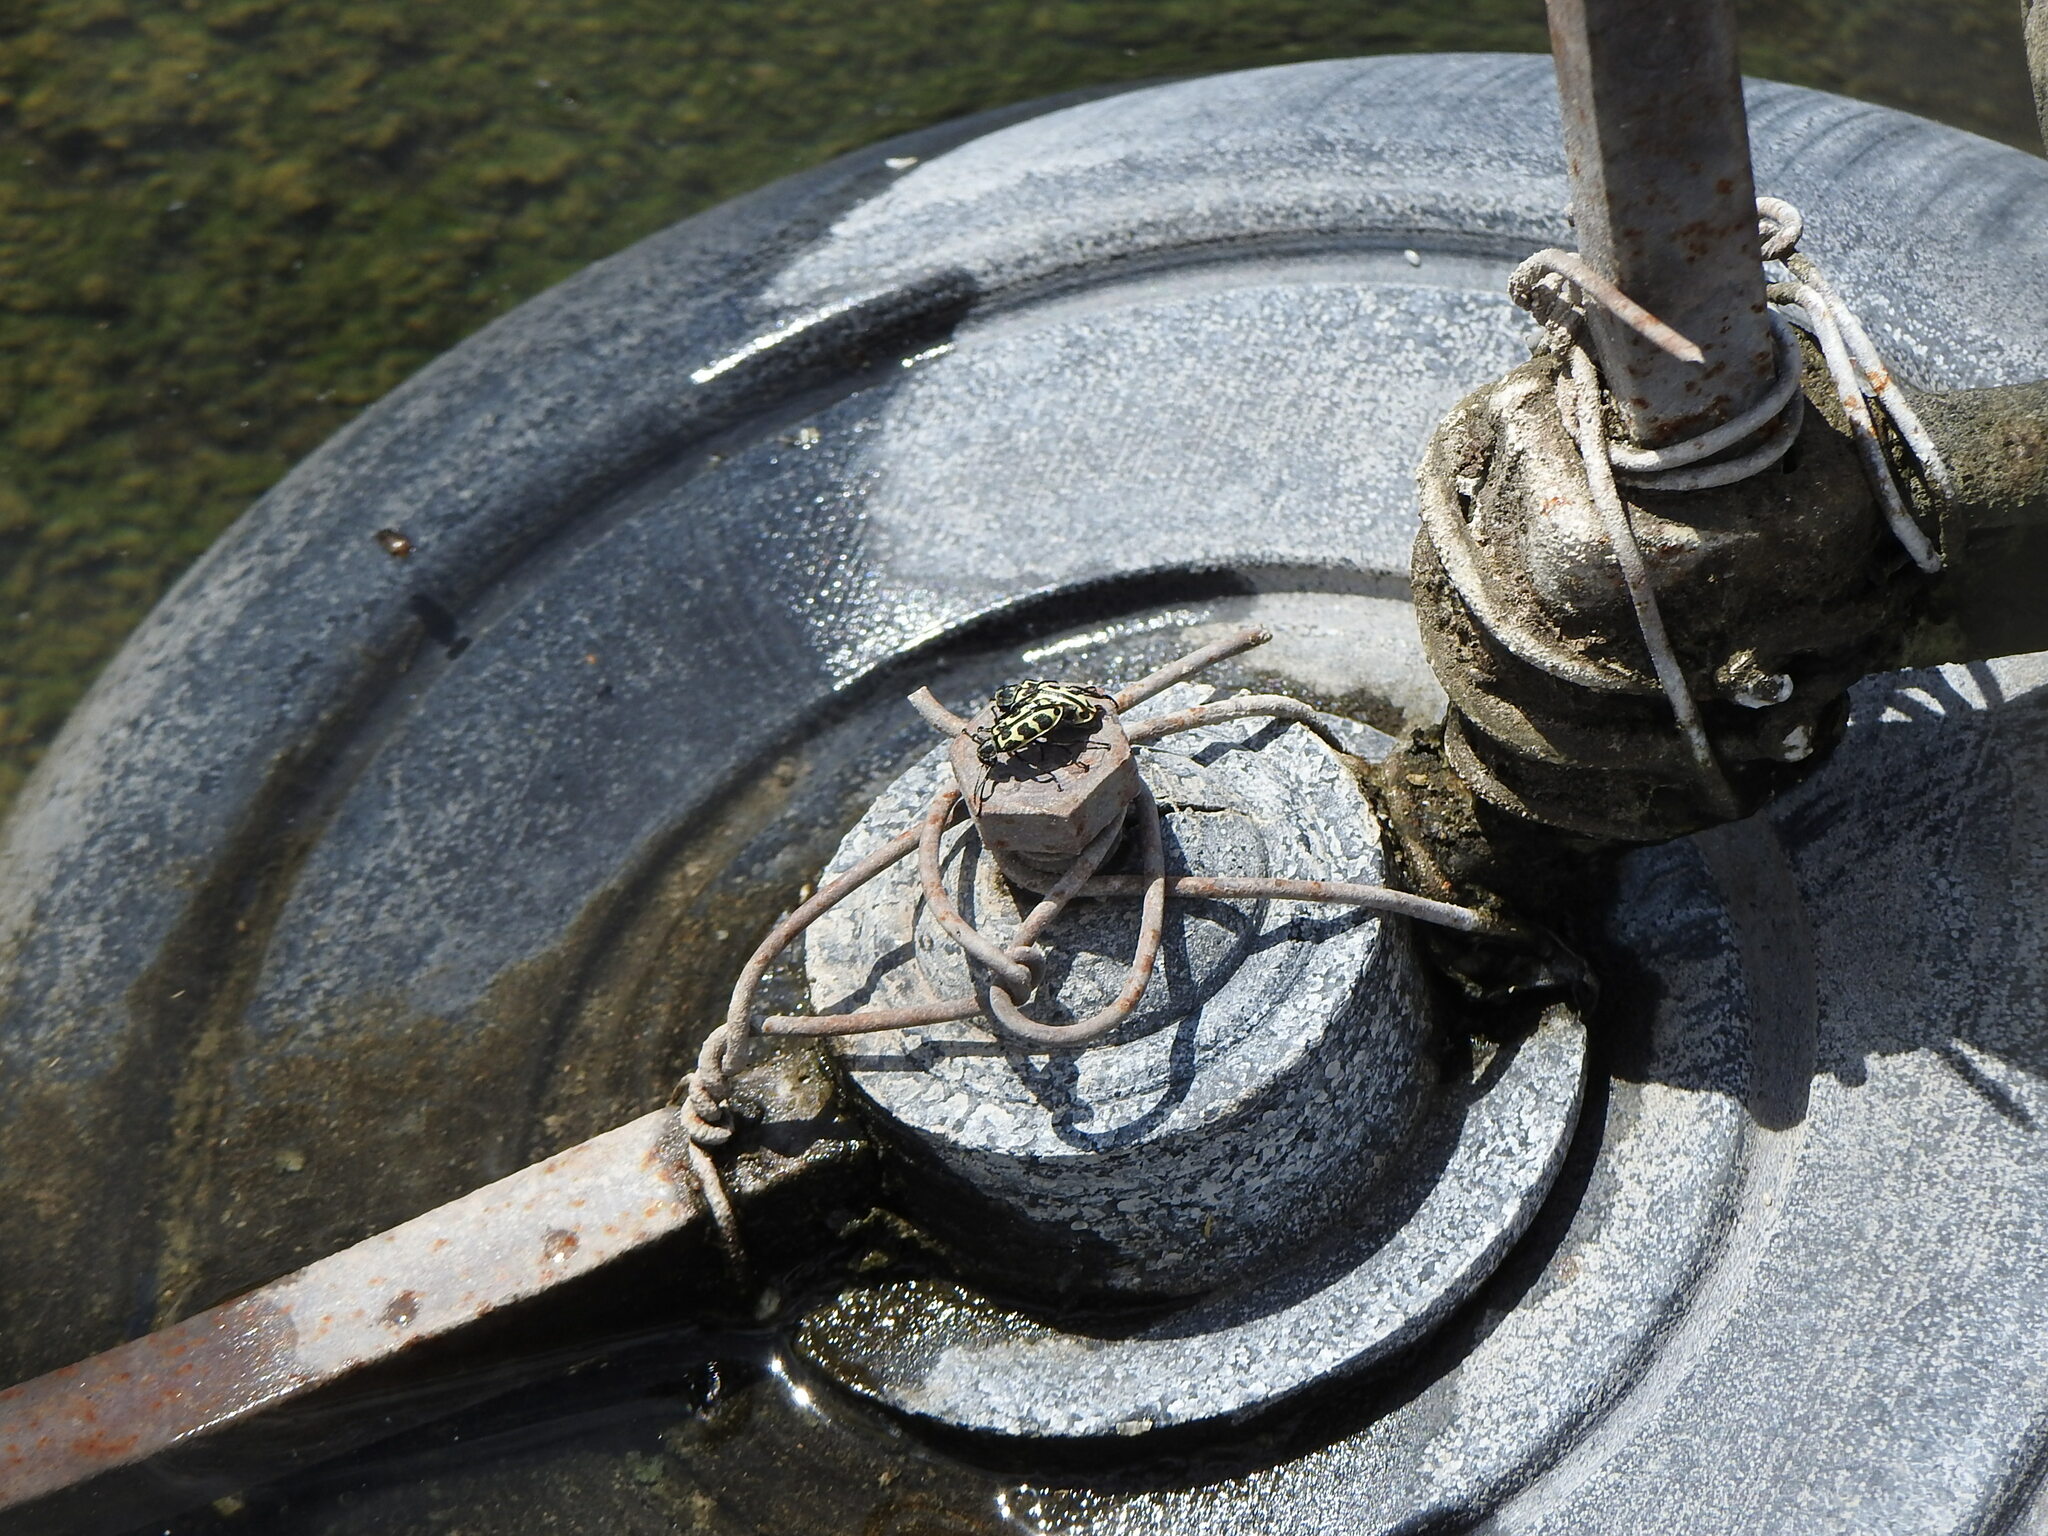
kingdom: Animalia
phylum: Arthropoda
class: Insecta
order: Coleoptera
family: Melyridae
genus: Astylus
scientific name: Astylus atromaculatus
